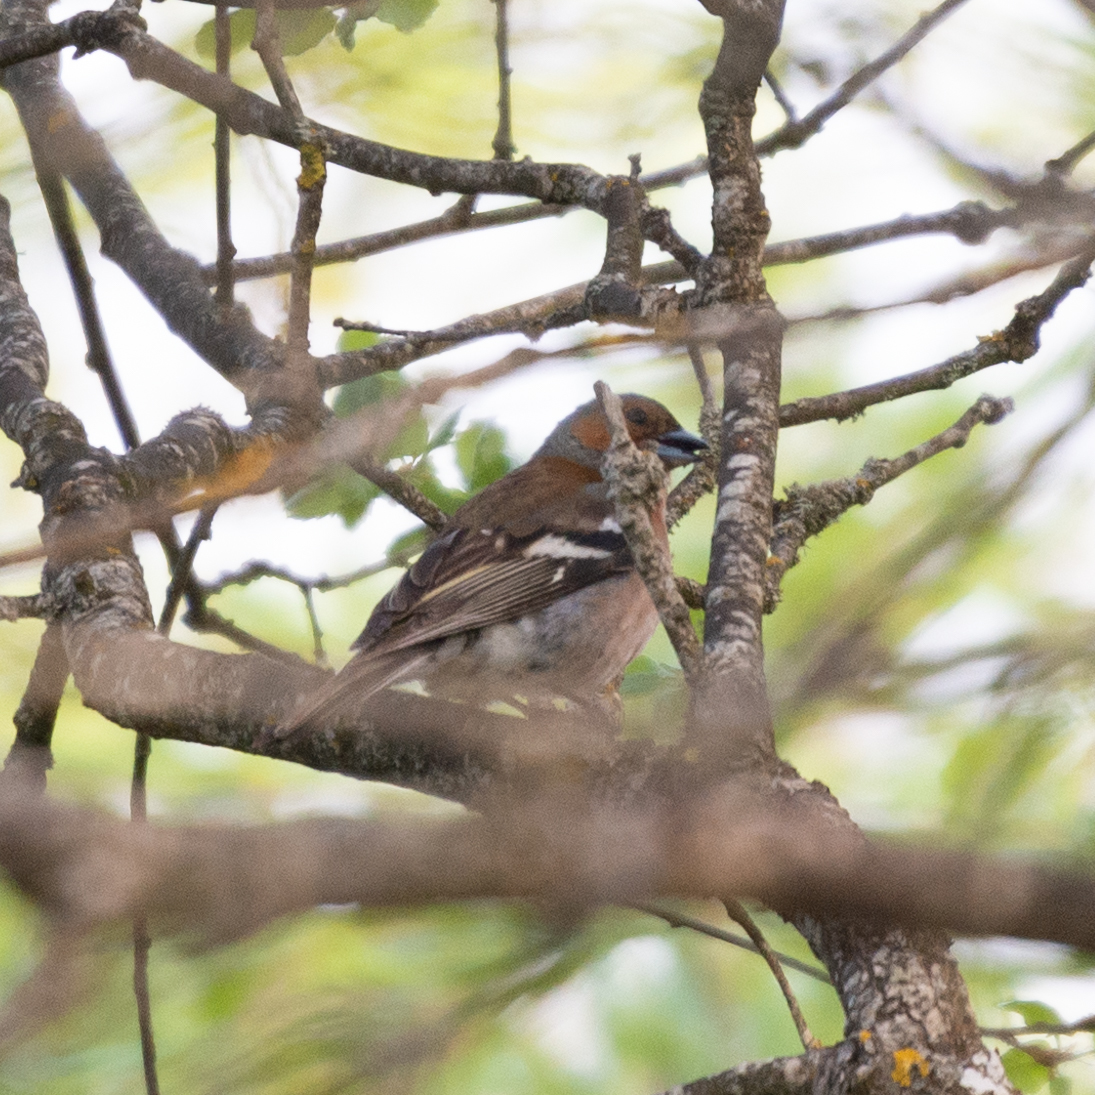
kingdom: Animalia
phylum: Chordata
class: Aves
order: Passeriformes
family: Fringillidae
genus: Fringilla
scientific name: Fringilla coelebs
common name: Common chaffinch
